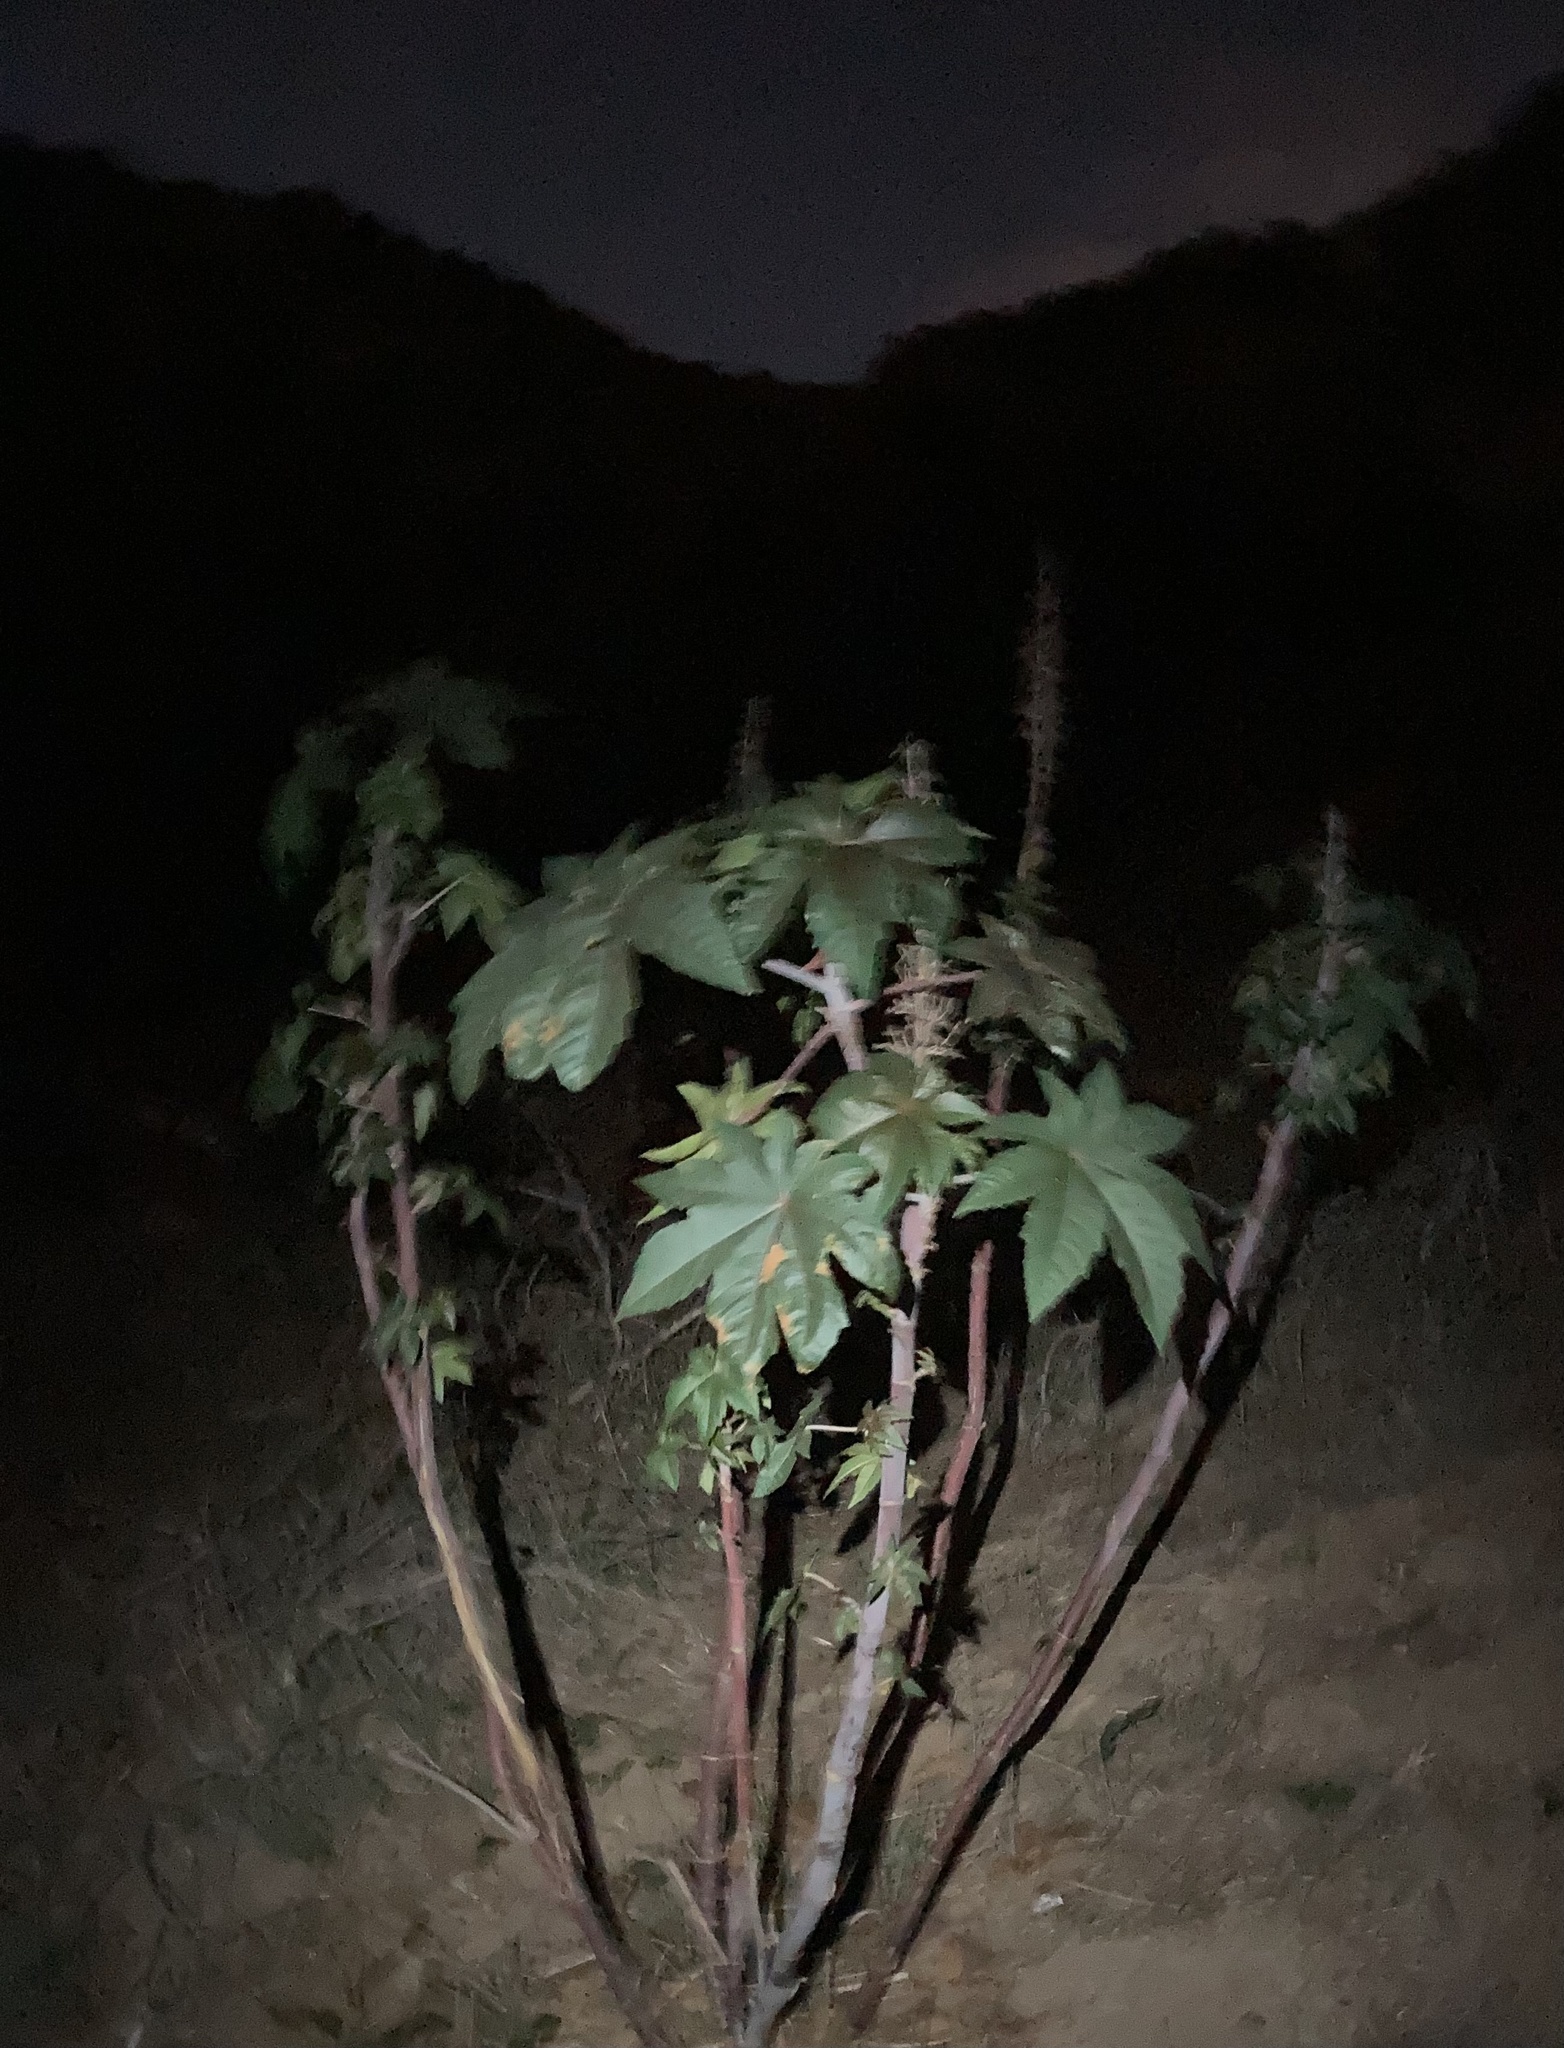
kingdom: Plantae
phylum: Tracheophyta
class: Magnoliopsida
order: Malpighiales
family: Euphorbiaceae
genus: Ricinus
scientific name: Ricinus communis
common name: Castor-oil-plant
